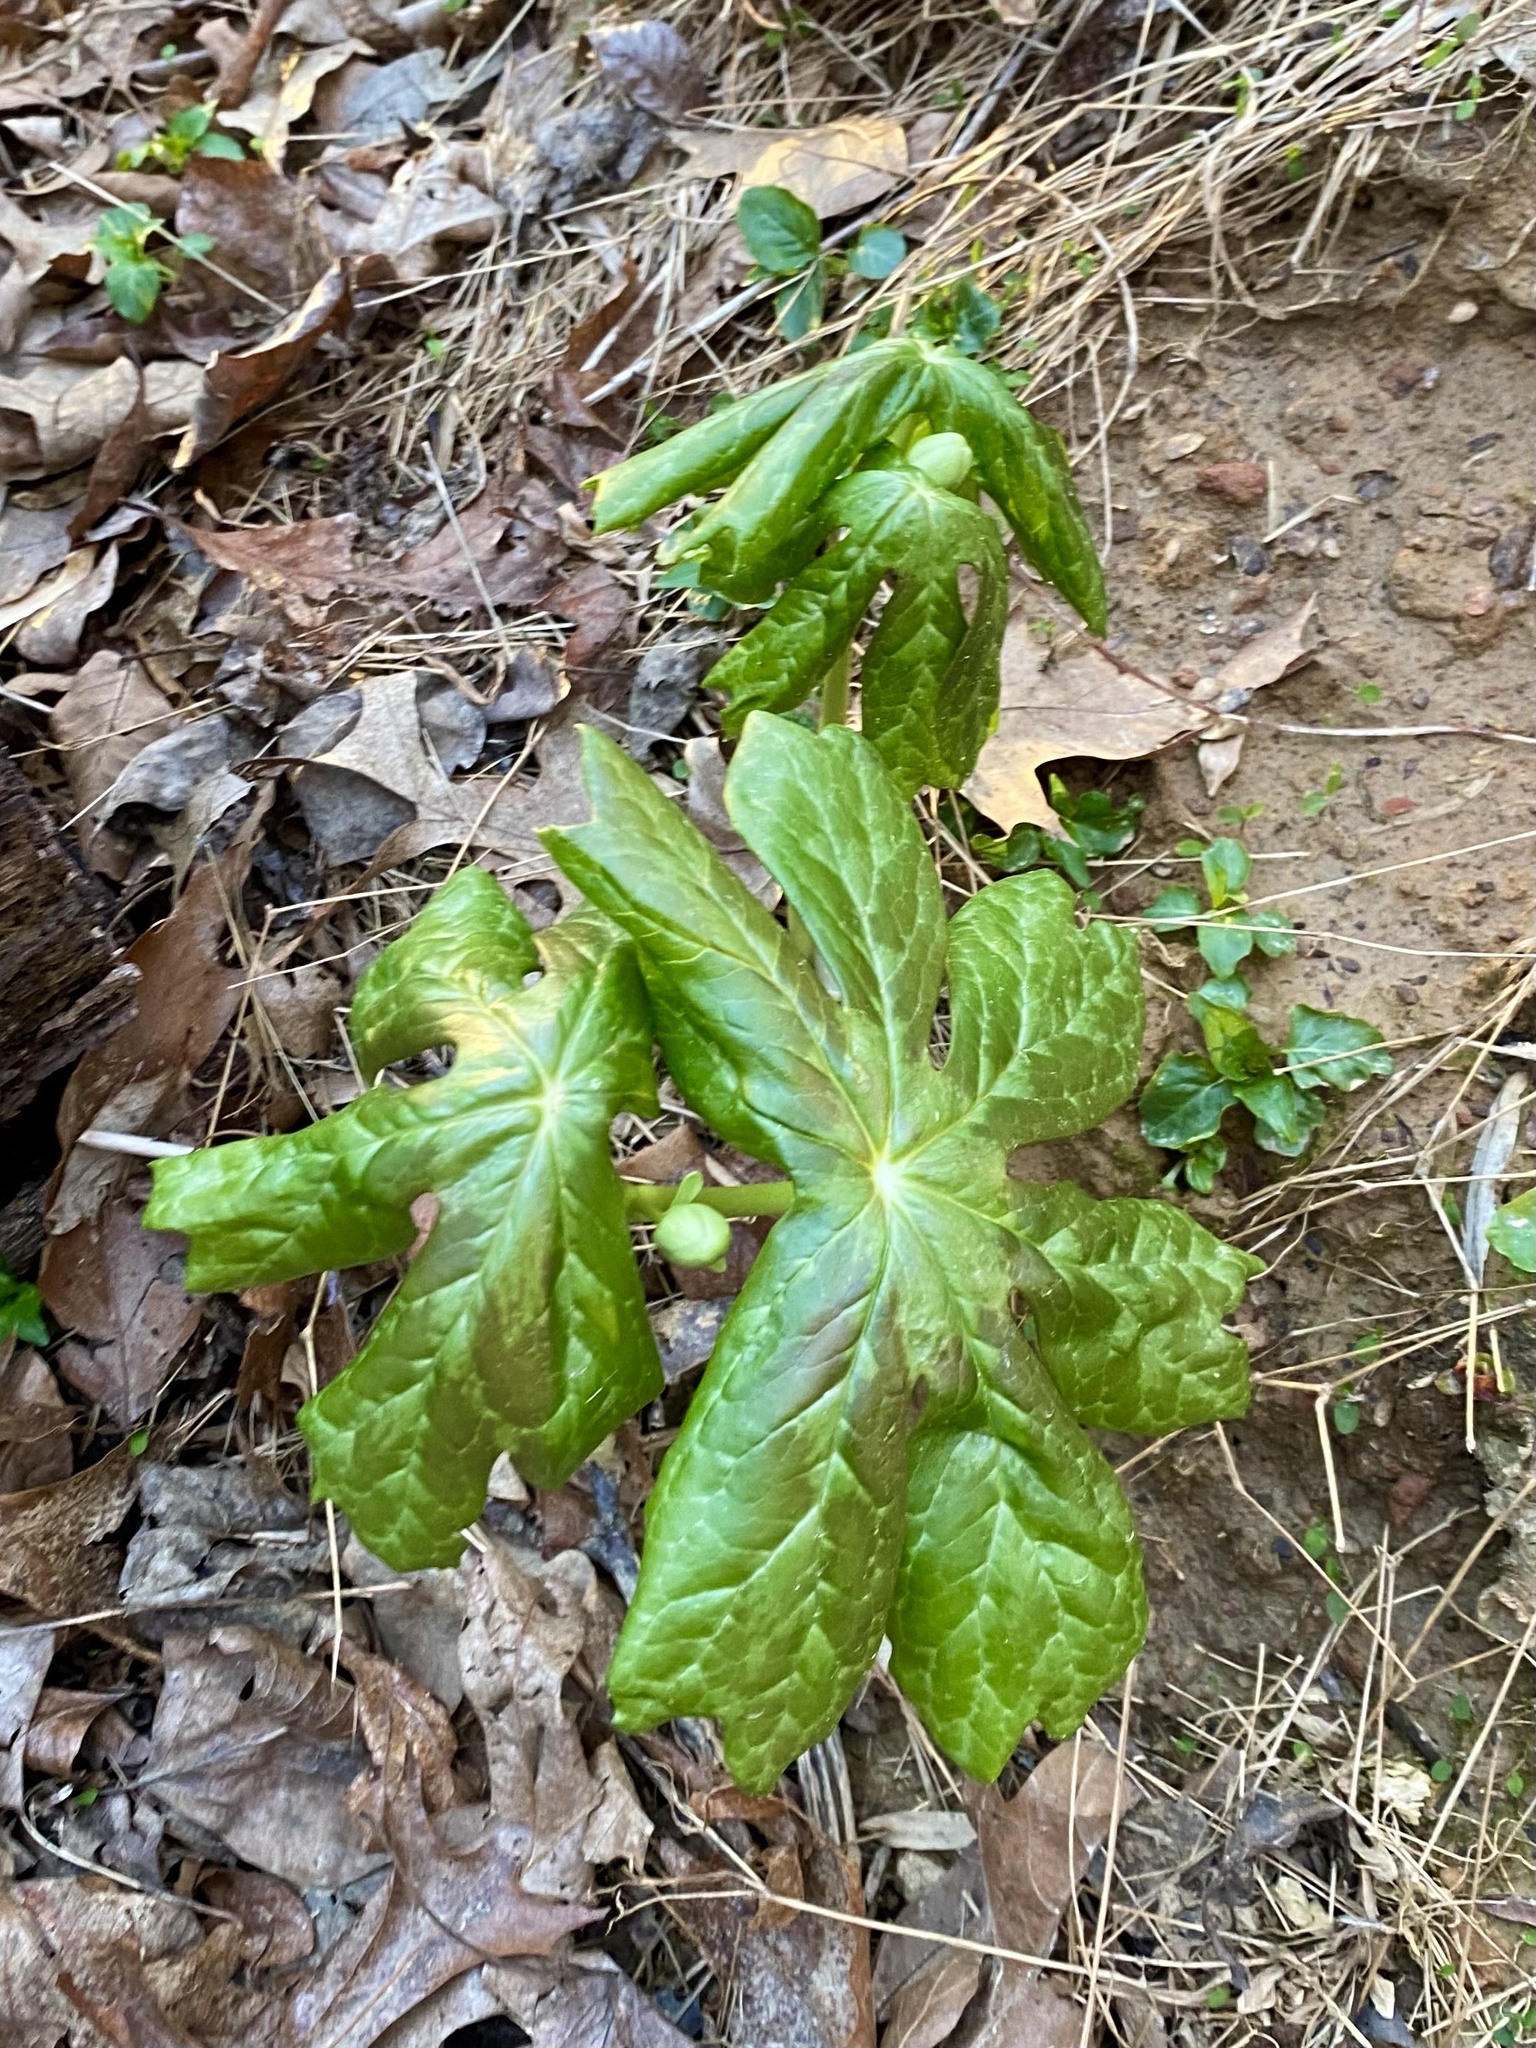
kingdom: Plantae
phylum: Tracheophyta
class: Magnoliopsida
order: Ranunculales
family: Berberidaceae
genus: Podophyllum
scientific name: Podophyllum peltatum
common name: Wild mandrake
